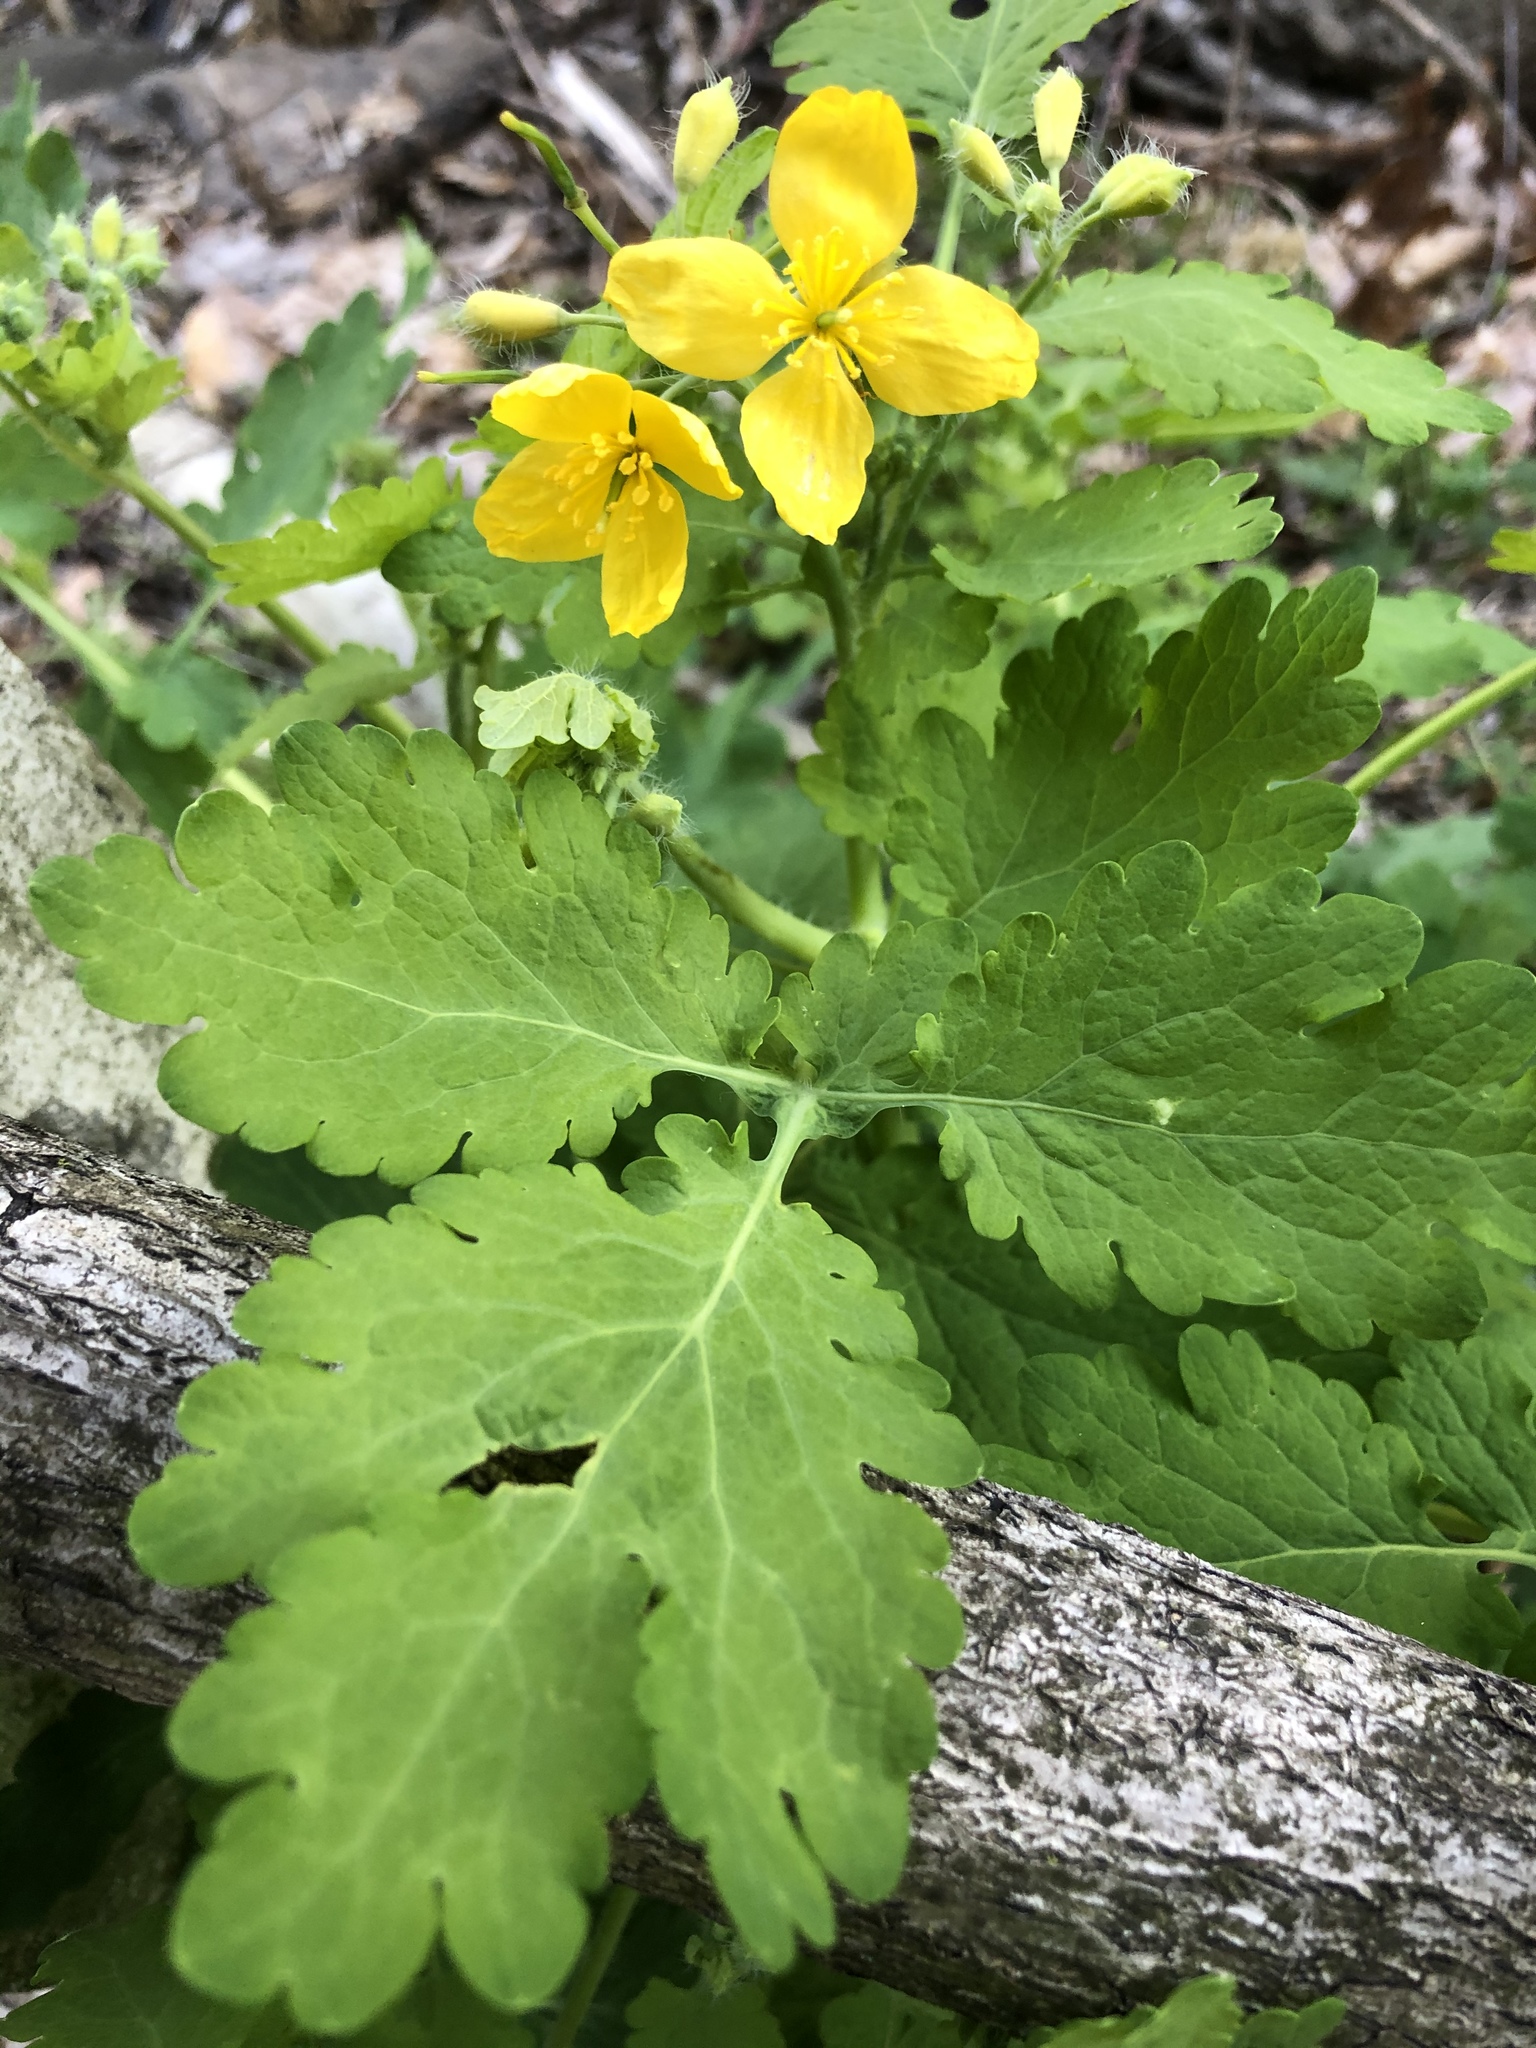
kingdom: Plantae
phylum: Tracheophyta
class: Magnoliopsida
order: Ranunculales
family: Papaveraceae
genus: Chelidonium
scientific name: Chelidonium majus
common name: Greater celandine
